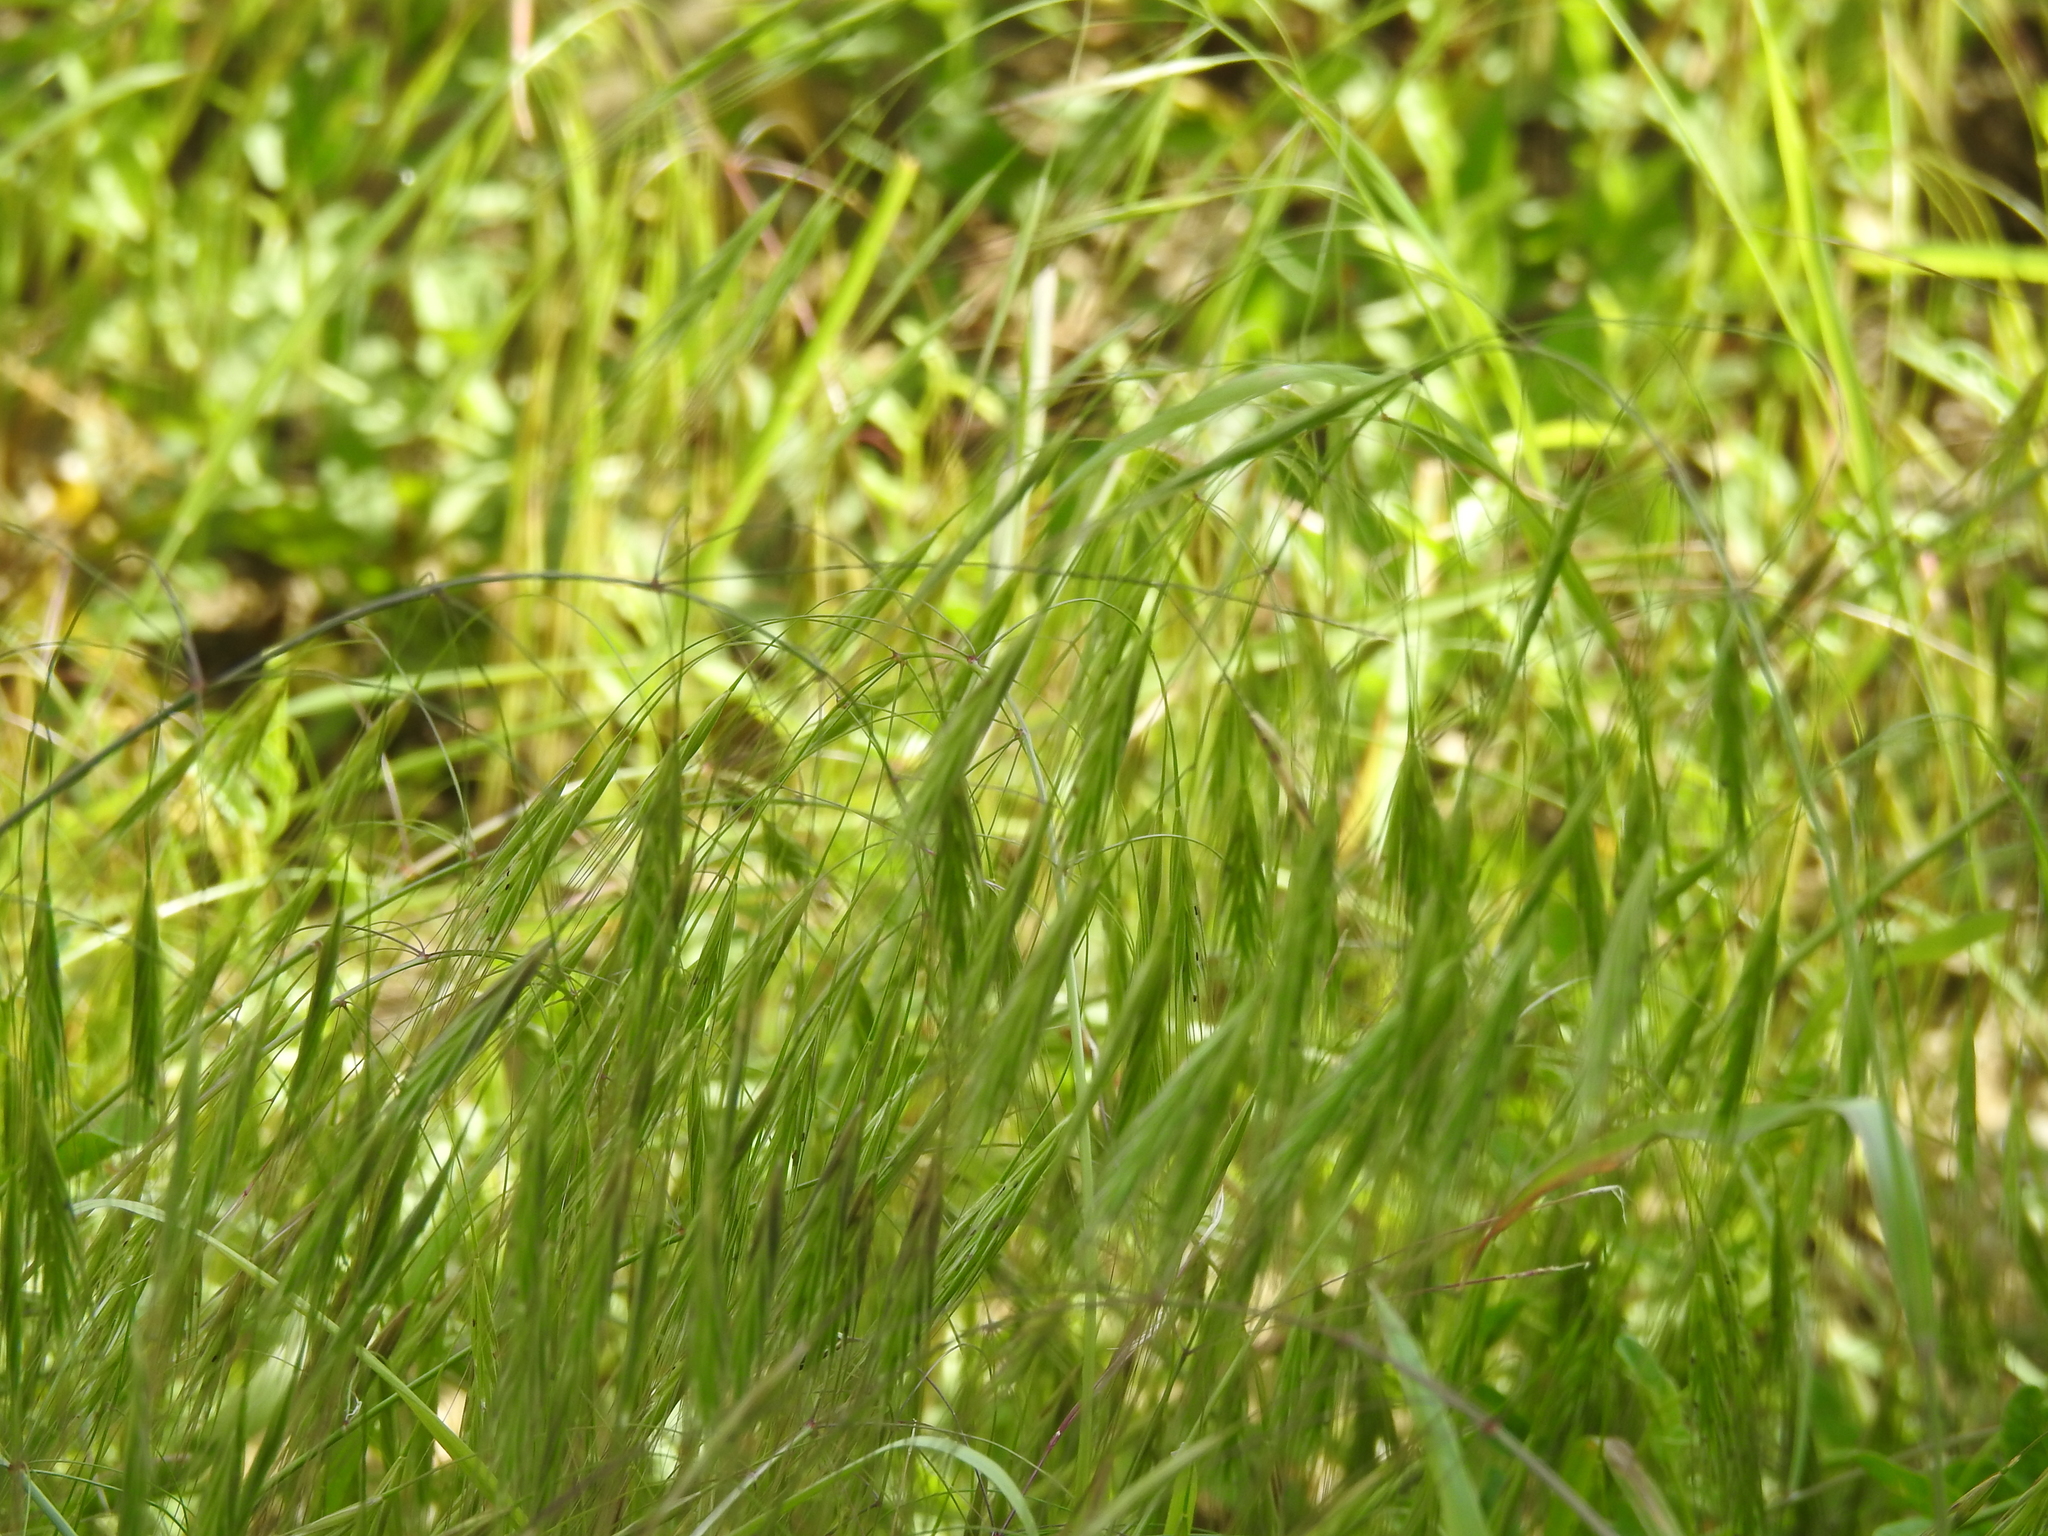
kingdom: Plantae
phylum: Tracheophyta
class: Liliopsida
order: Poales
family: Poaceae
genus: Bromus
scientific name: Bromus tectorum
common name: Cheatgrass
